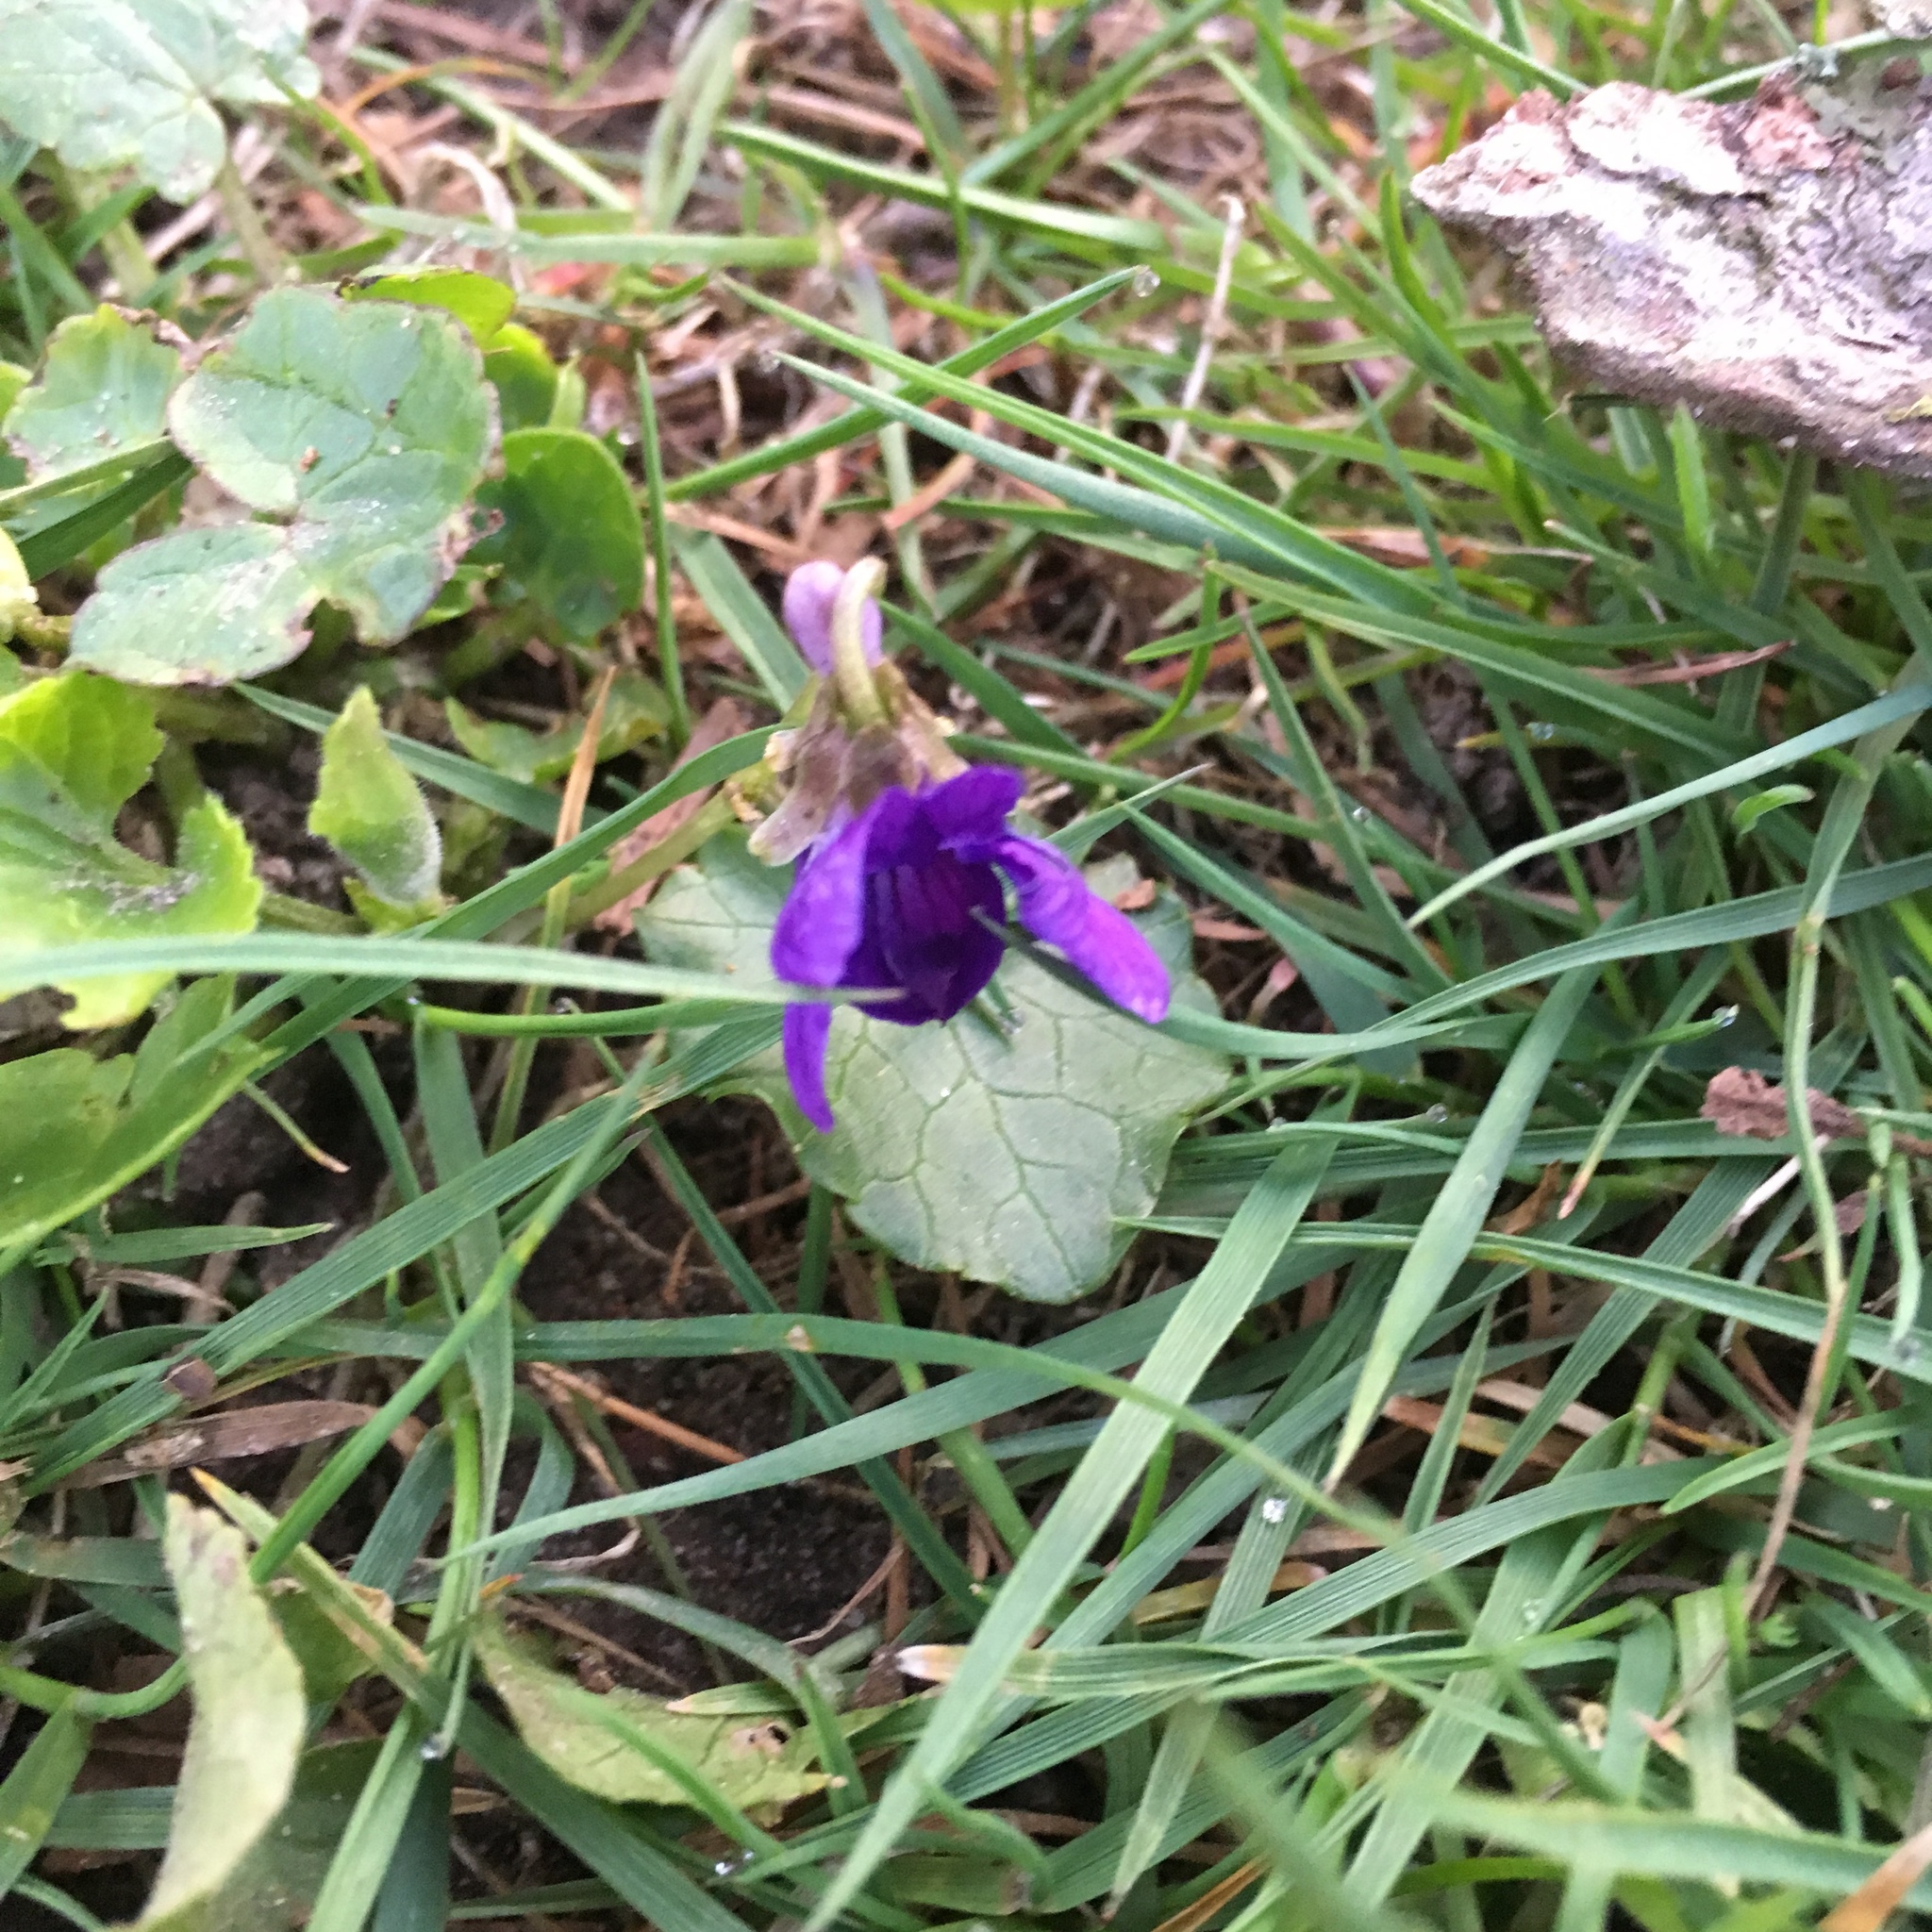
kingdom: Plantae
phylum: Tracheophyta
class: Magnoliopsida
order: Malpighiales
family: Violaceae
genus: Viola
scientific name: Viola odorata
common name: Sweet violet
